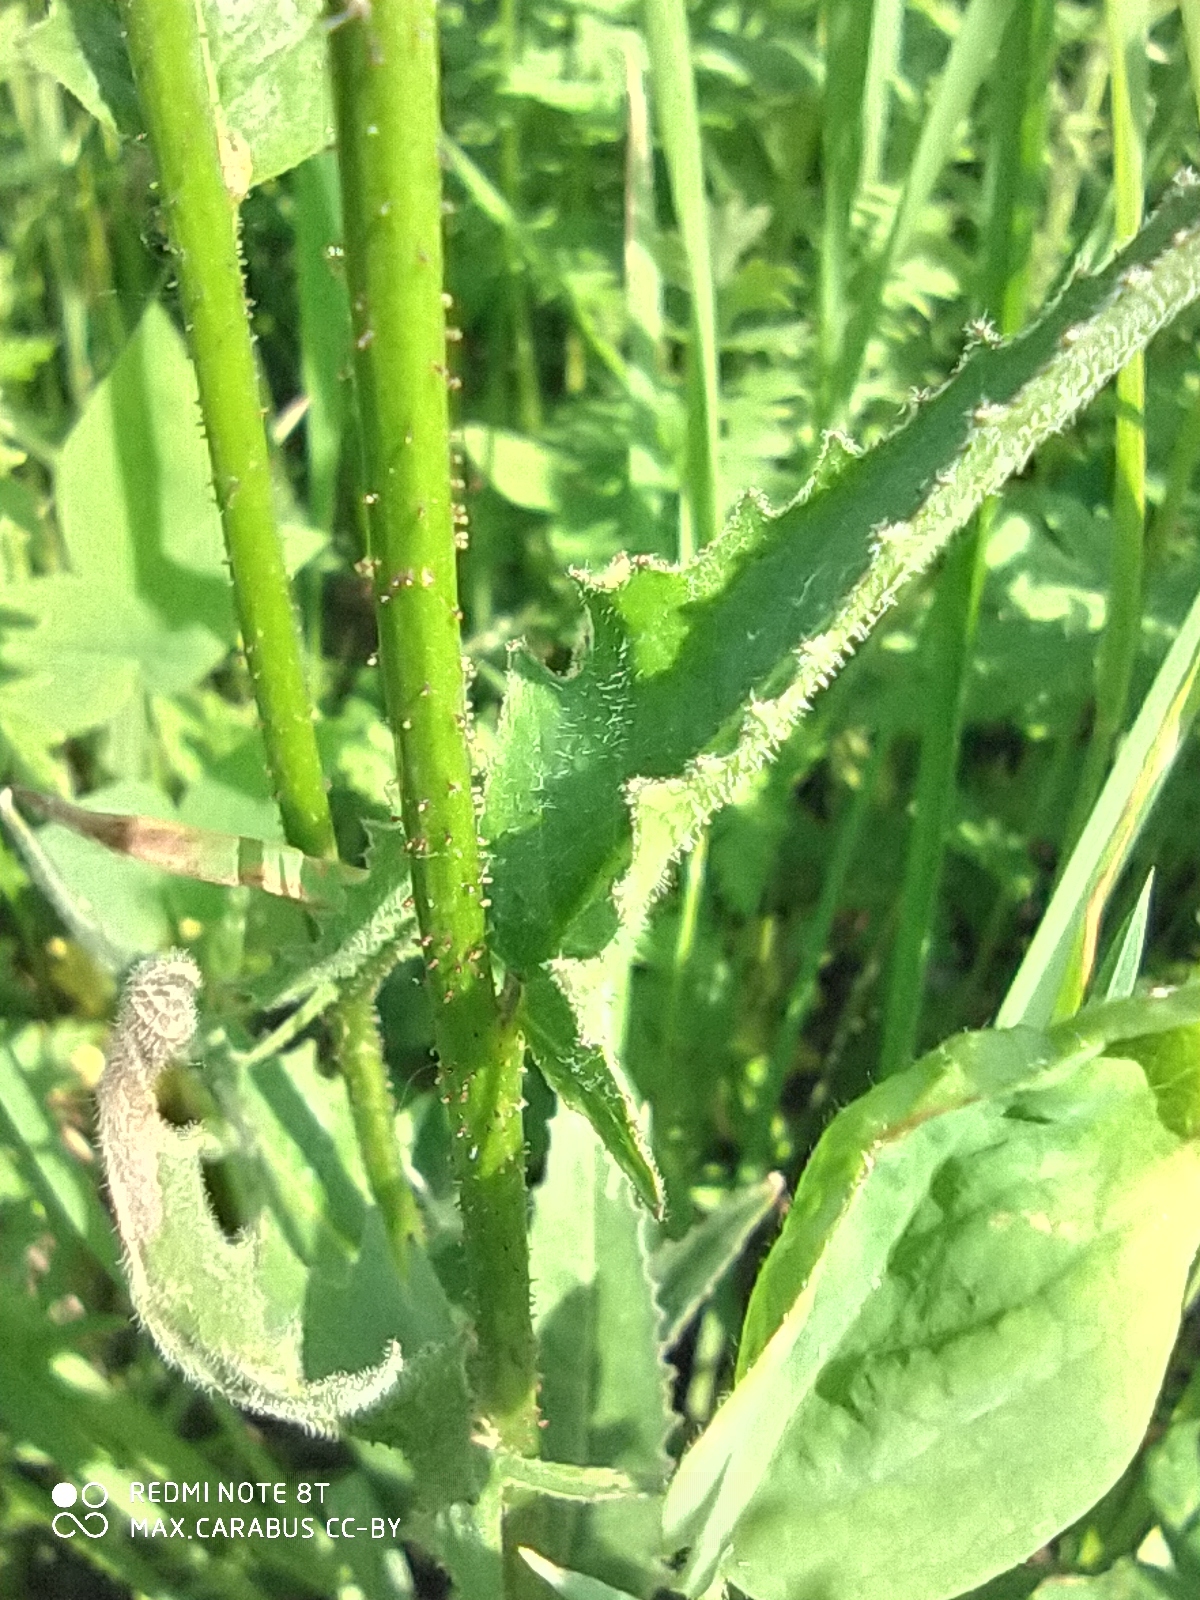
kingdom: Plantae
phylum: Tracheophyta
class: Magnoliopsida
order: Brassicales
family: Brassicaceae
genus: Bunias
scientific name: Bunias orientalis
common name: Warty-cabbage
